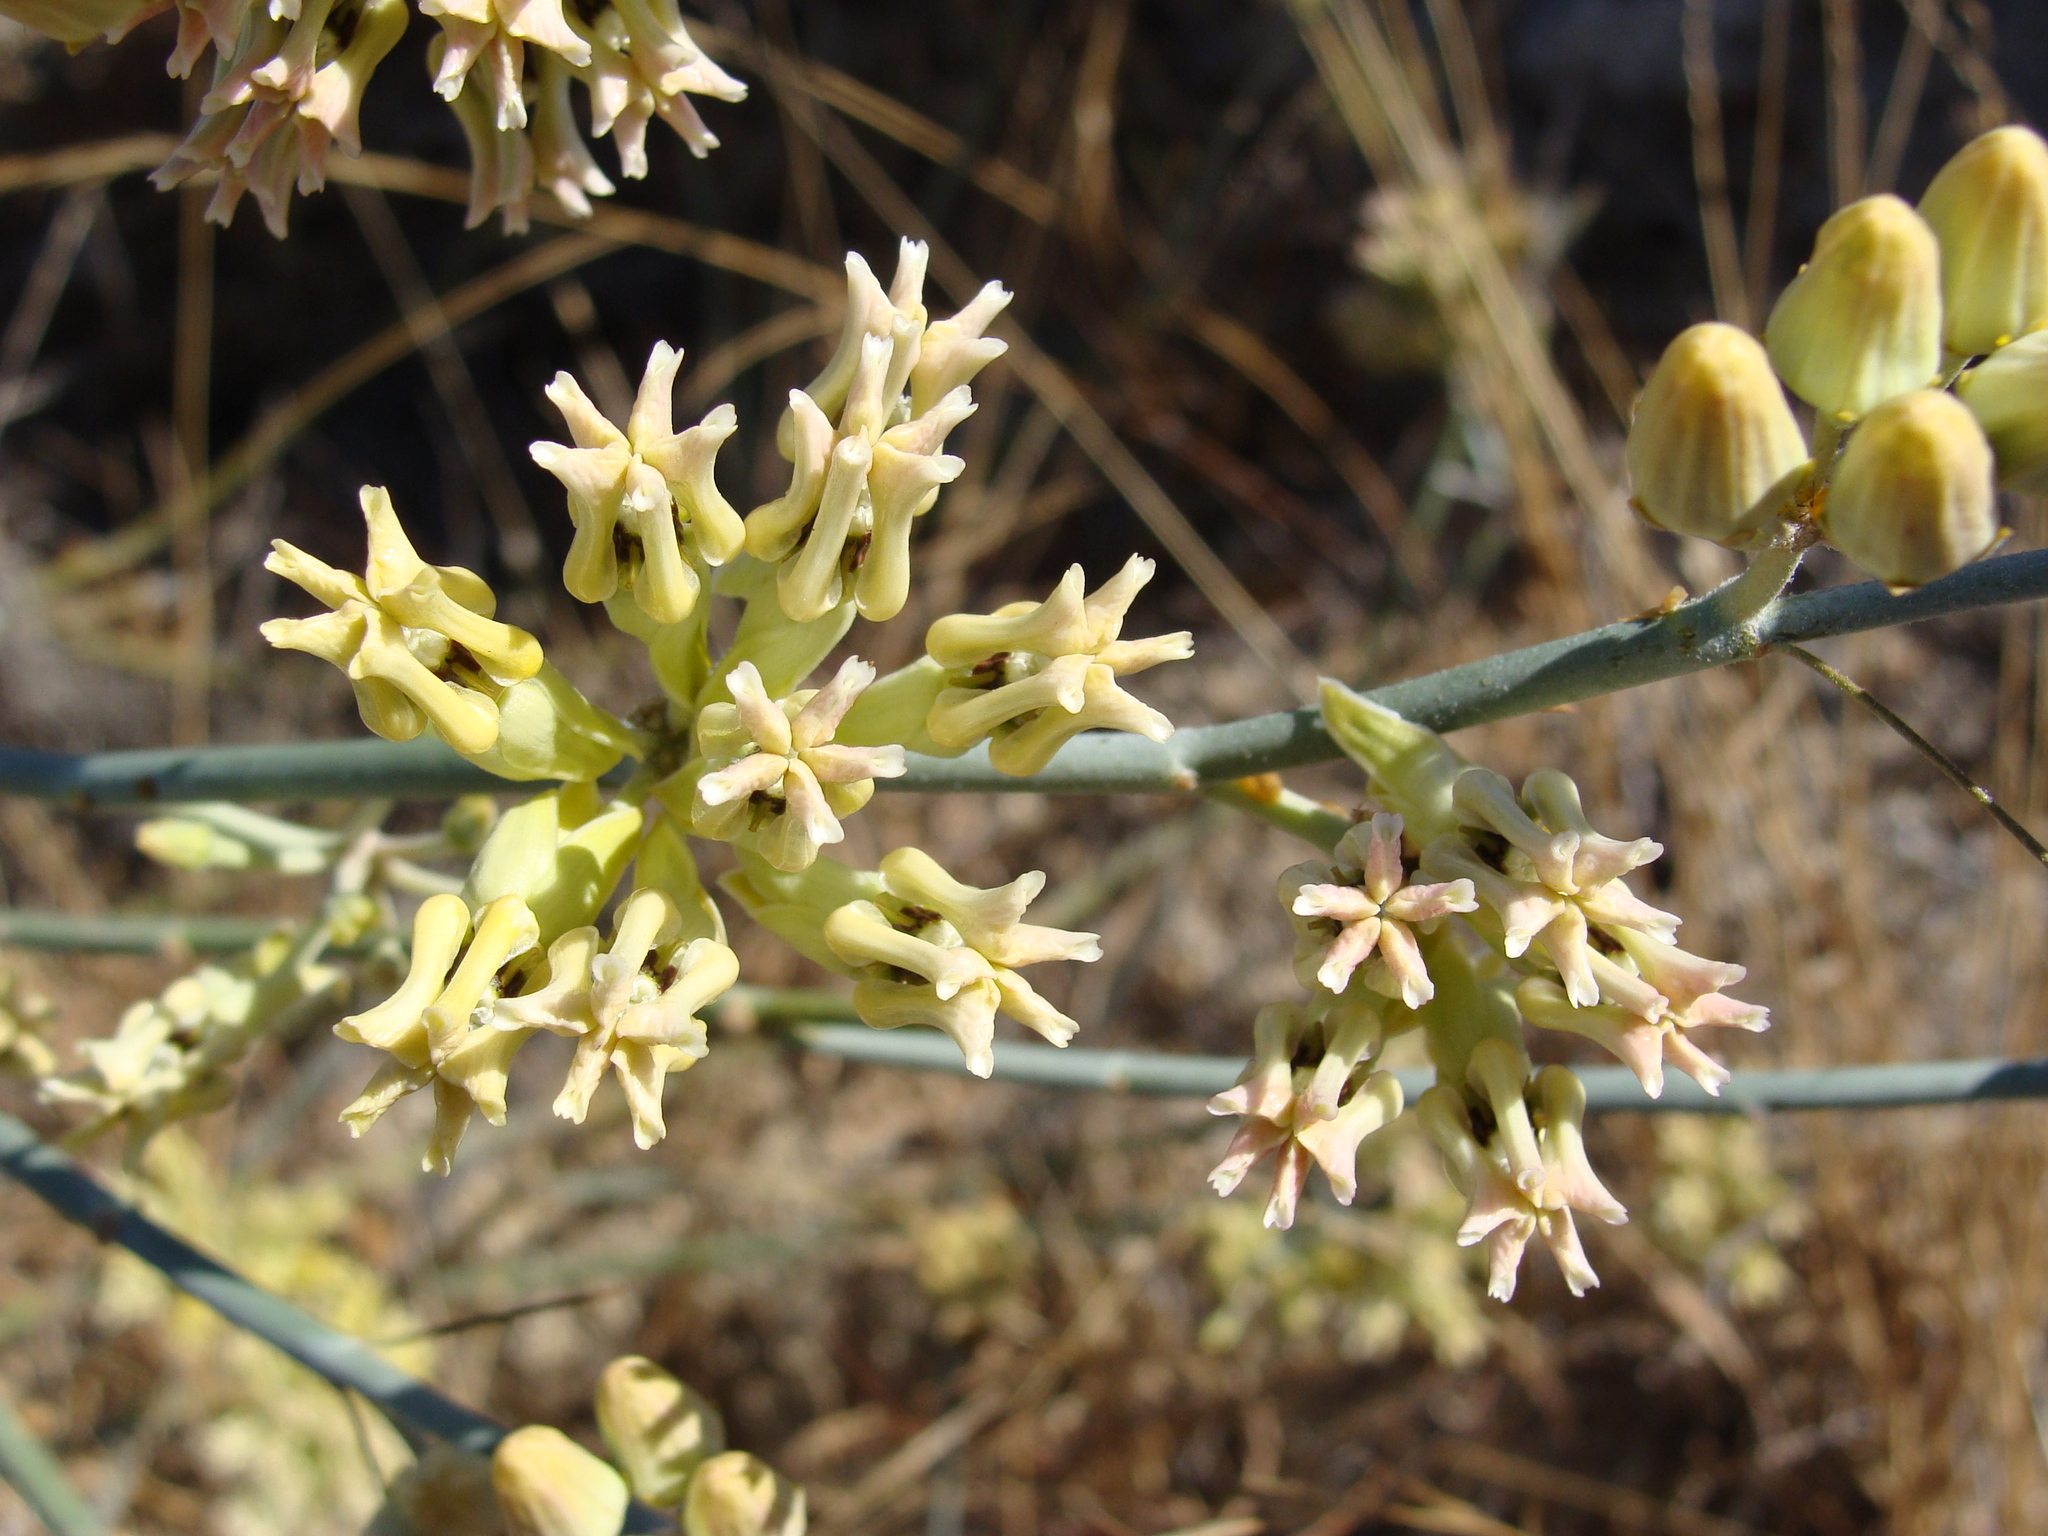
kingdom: Plantae
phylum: Tracheophyta
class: Magnoliopsida
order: Gentianales
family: Apocynaceae
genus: Asclepias
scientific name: Asclepias subulata
